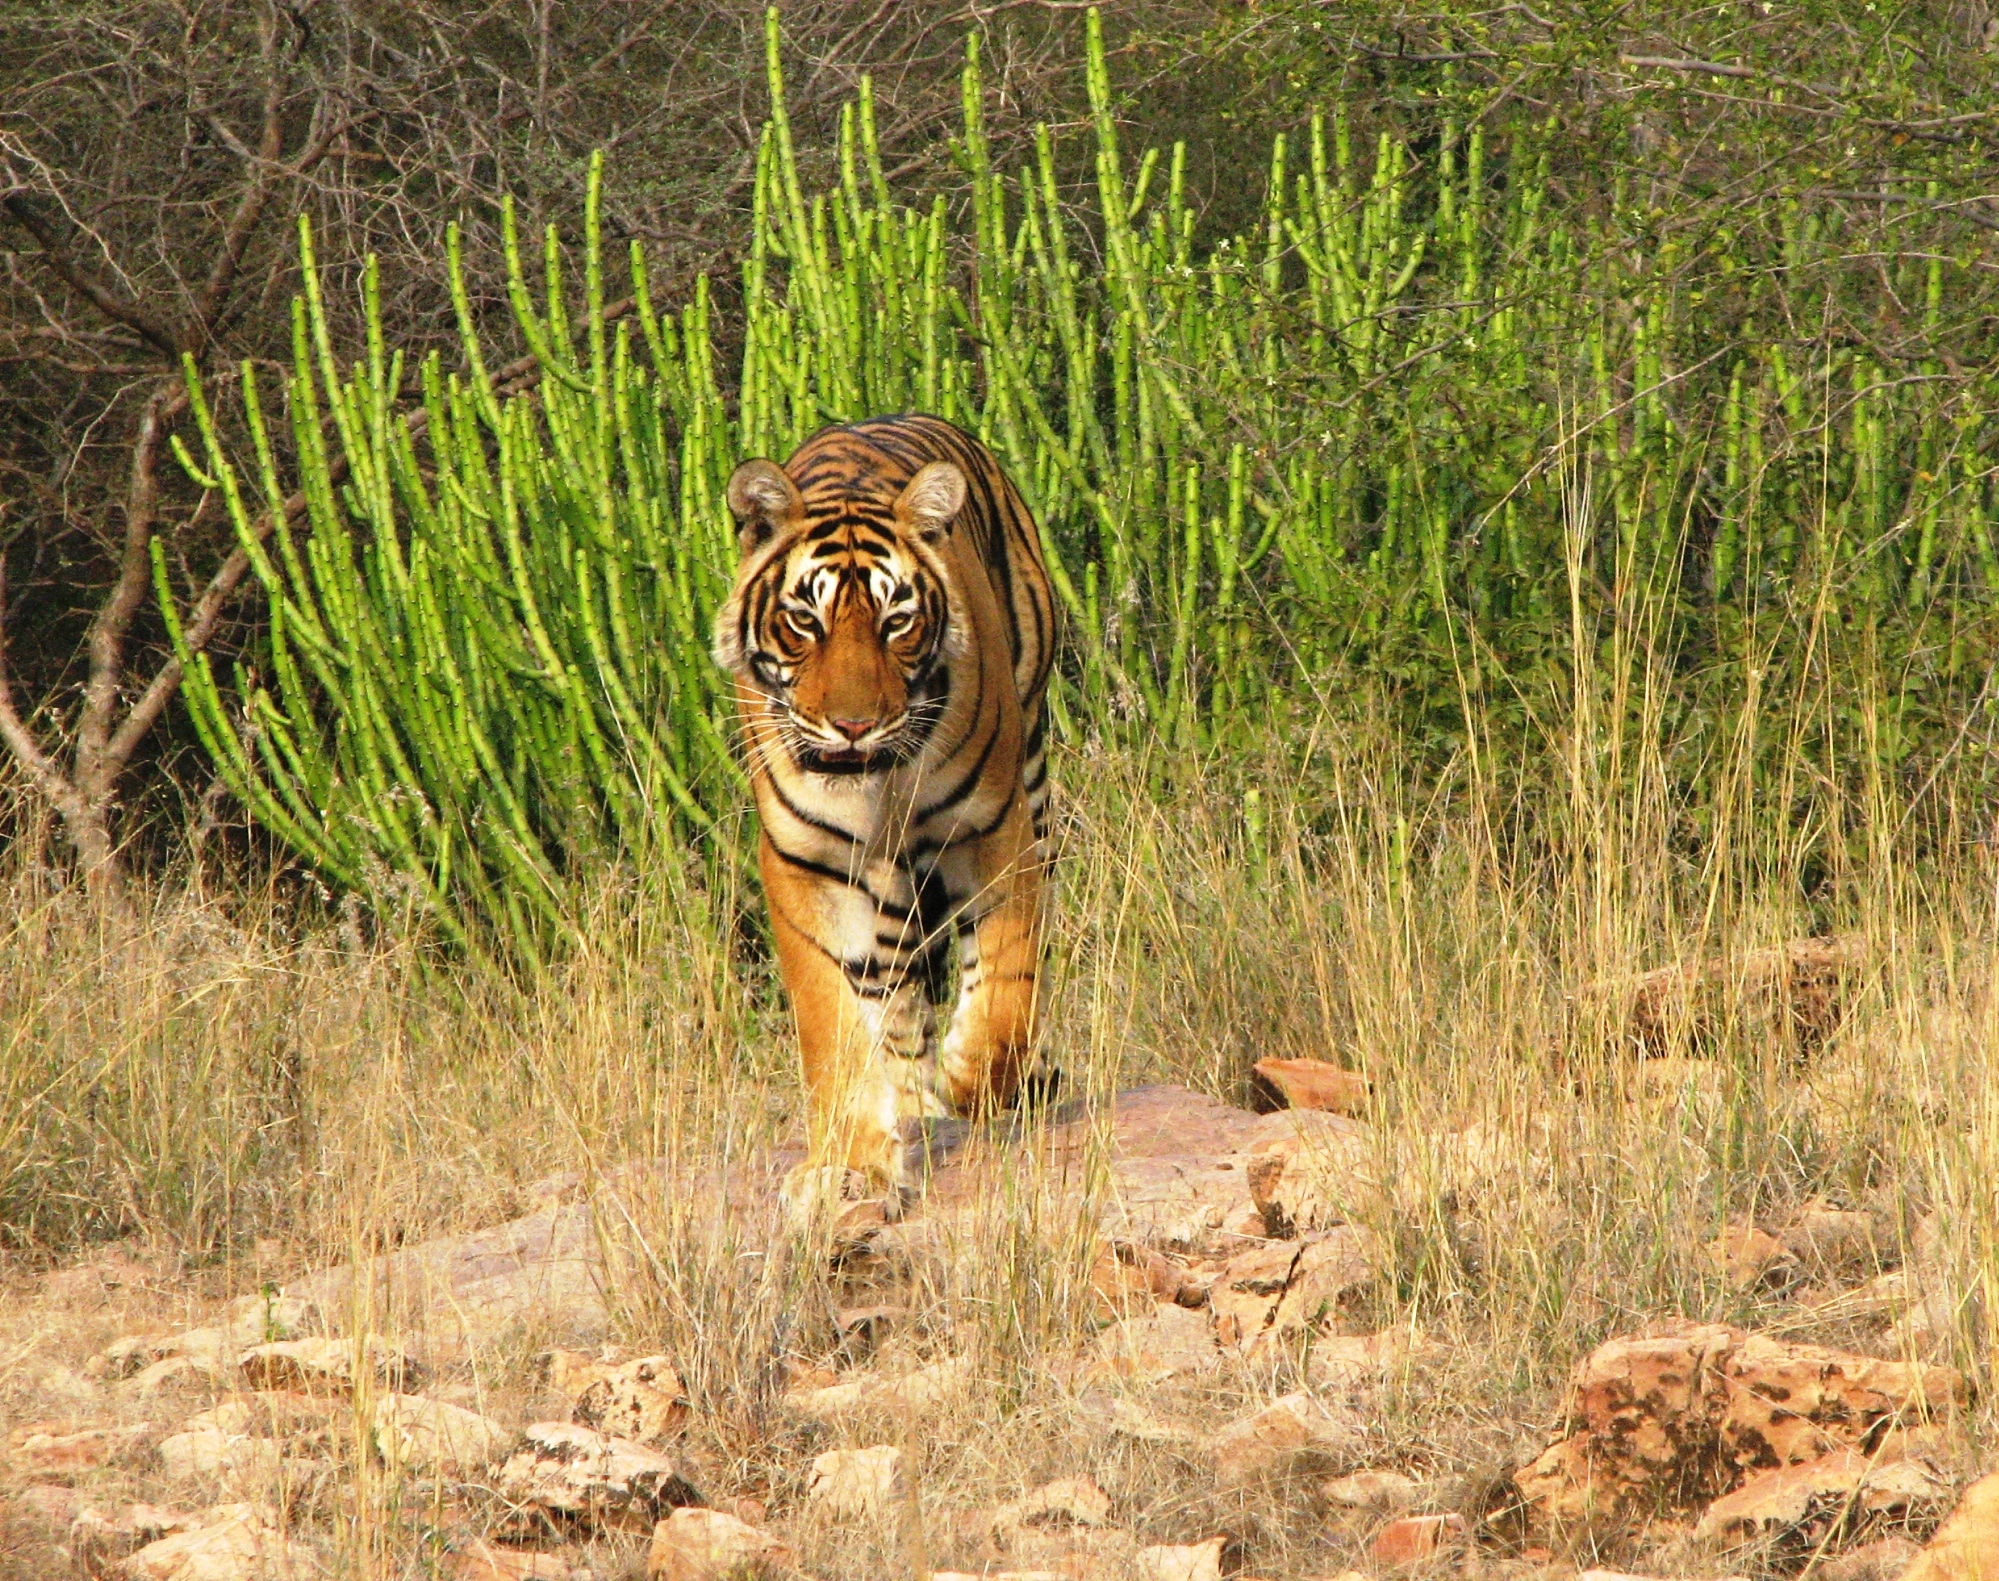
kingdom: Plantae
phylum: Tracheophyta
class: Magnoliopsida
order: Malpighiales
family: Euphorbiaceae
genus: Euphorbia
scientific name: Euphorbia caducifolia
